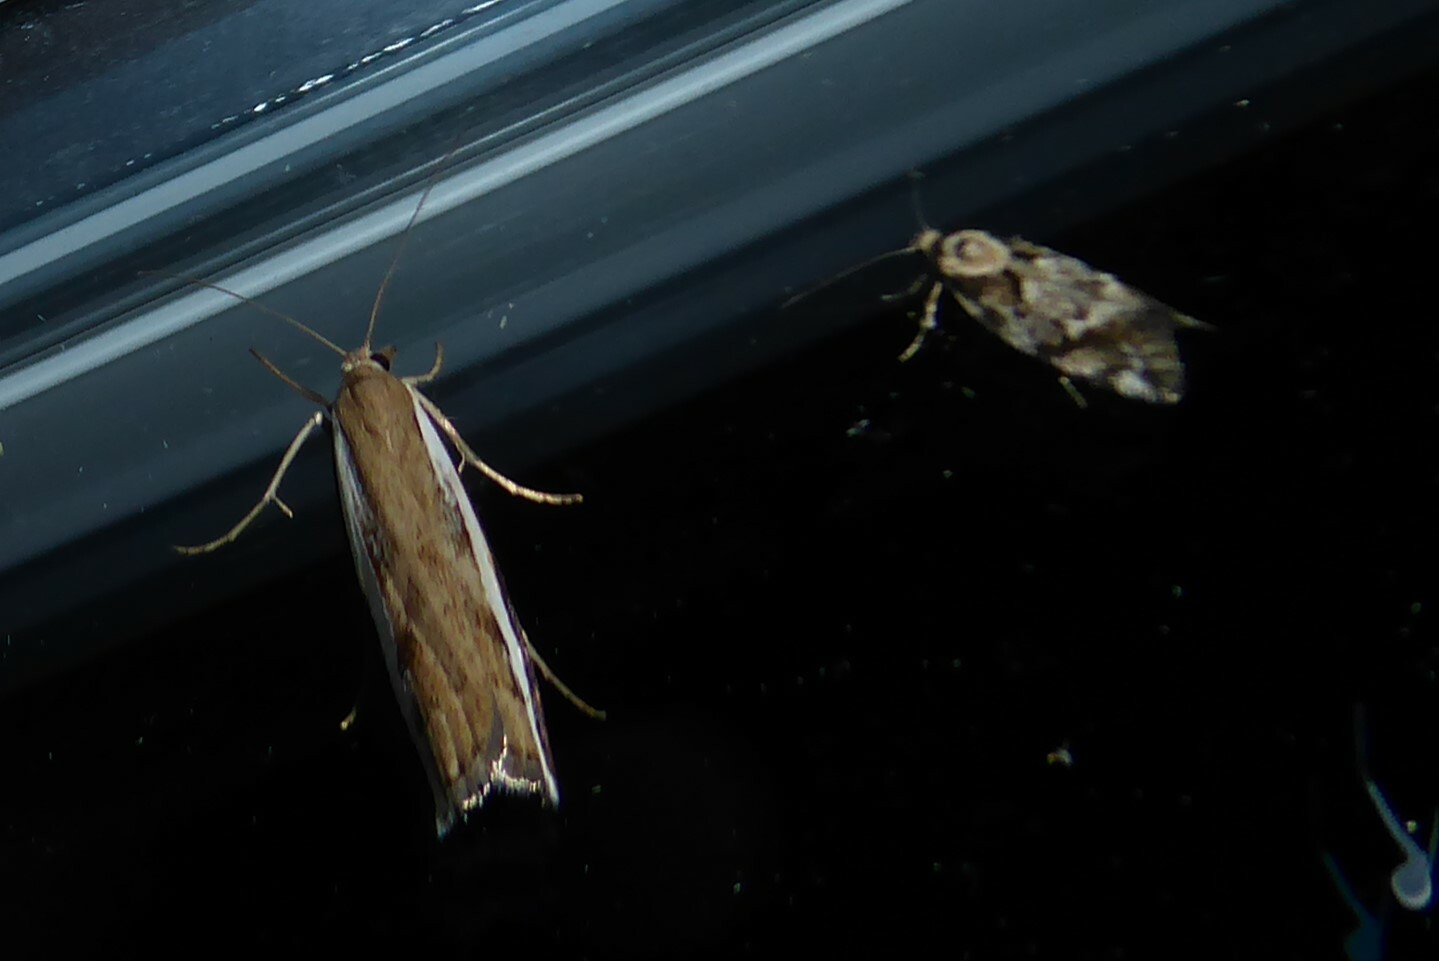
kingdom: Animalia
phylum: Arthropoda
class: Insecta
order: Lepidoptera
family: Crambidae
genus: Orocrambus
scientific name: Orocrambus flexuosellus
